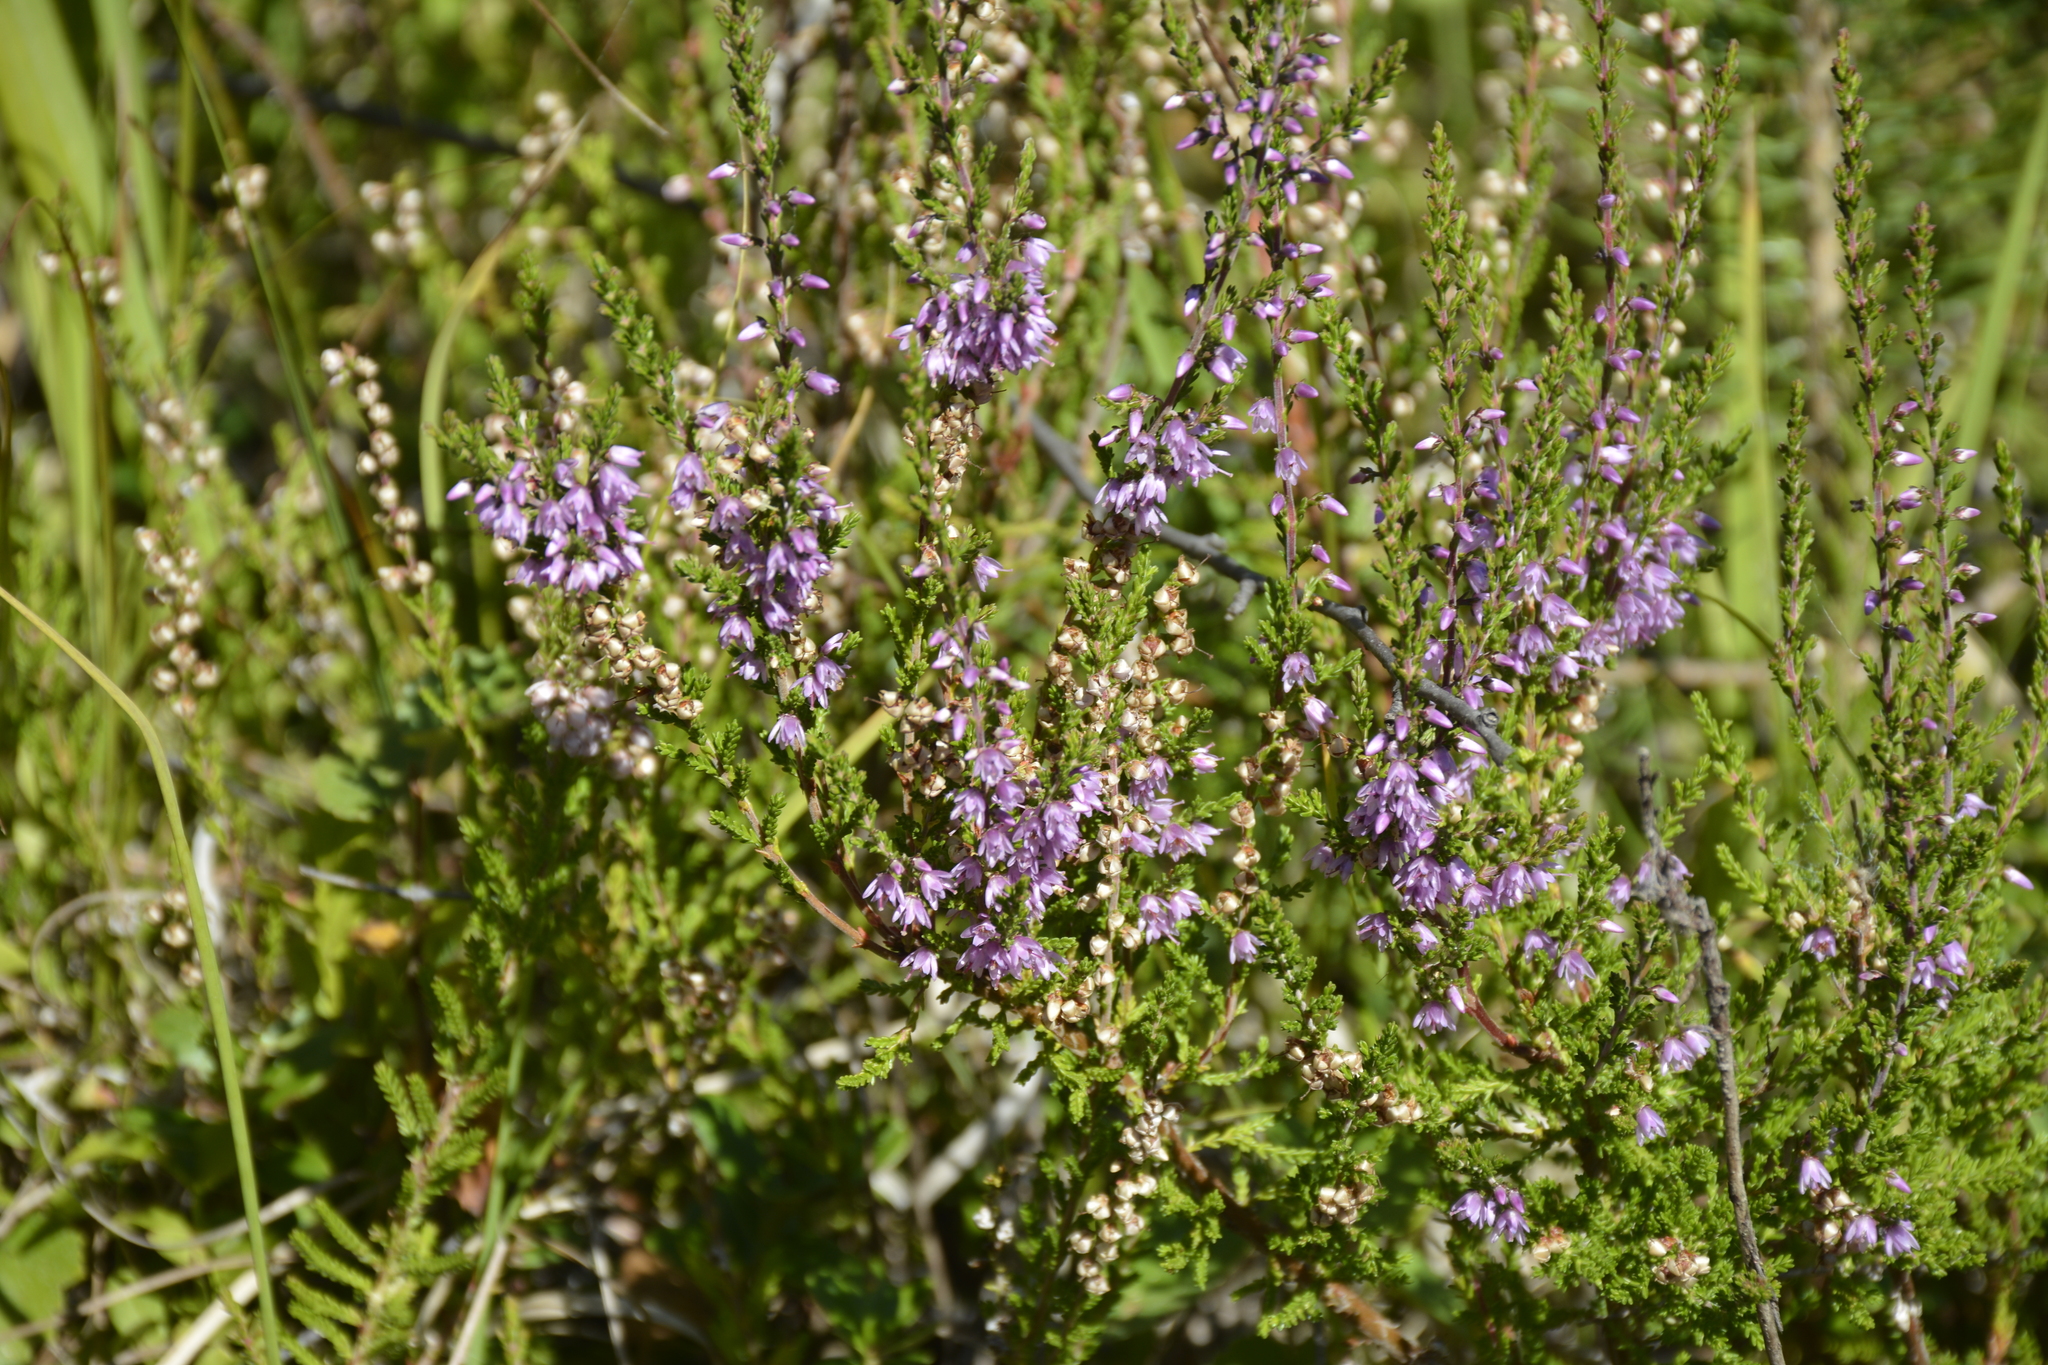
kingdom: Plantae
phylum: Tracheophyta
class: Magnoliopsida
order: Ericales
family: Ericaceae
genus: Calluna
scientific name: Calluna vulgaris
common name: Heather
